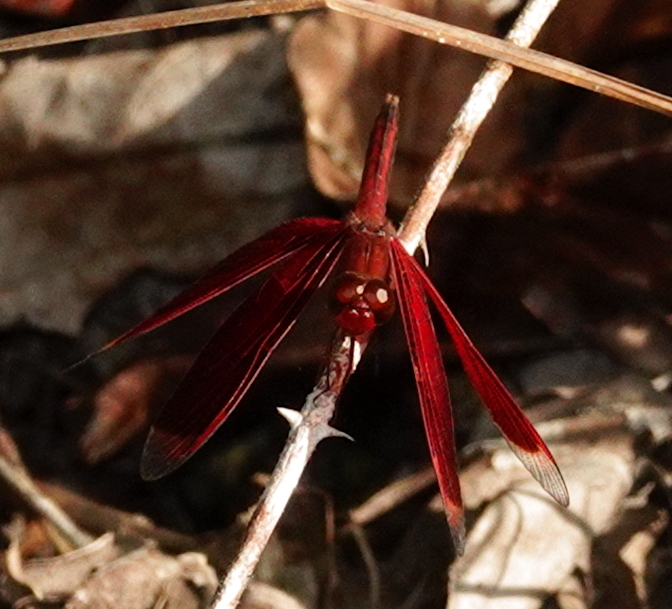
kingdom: Animalia
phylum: Arthropoda
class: Insecta
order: Odonata
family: Libellulidae
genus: Neurothemis
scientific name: Neurothemis manadensis
